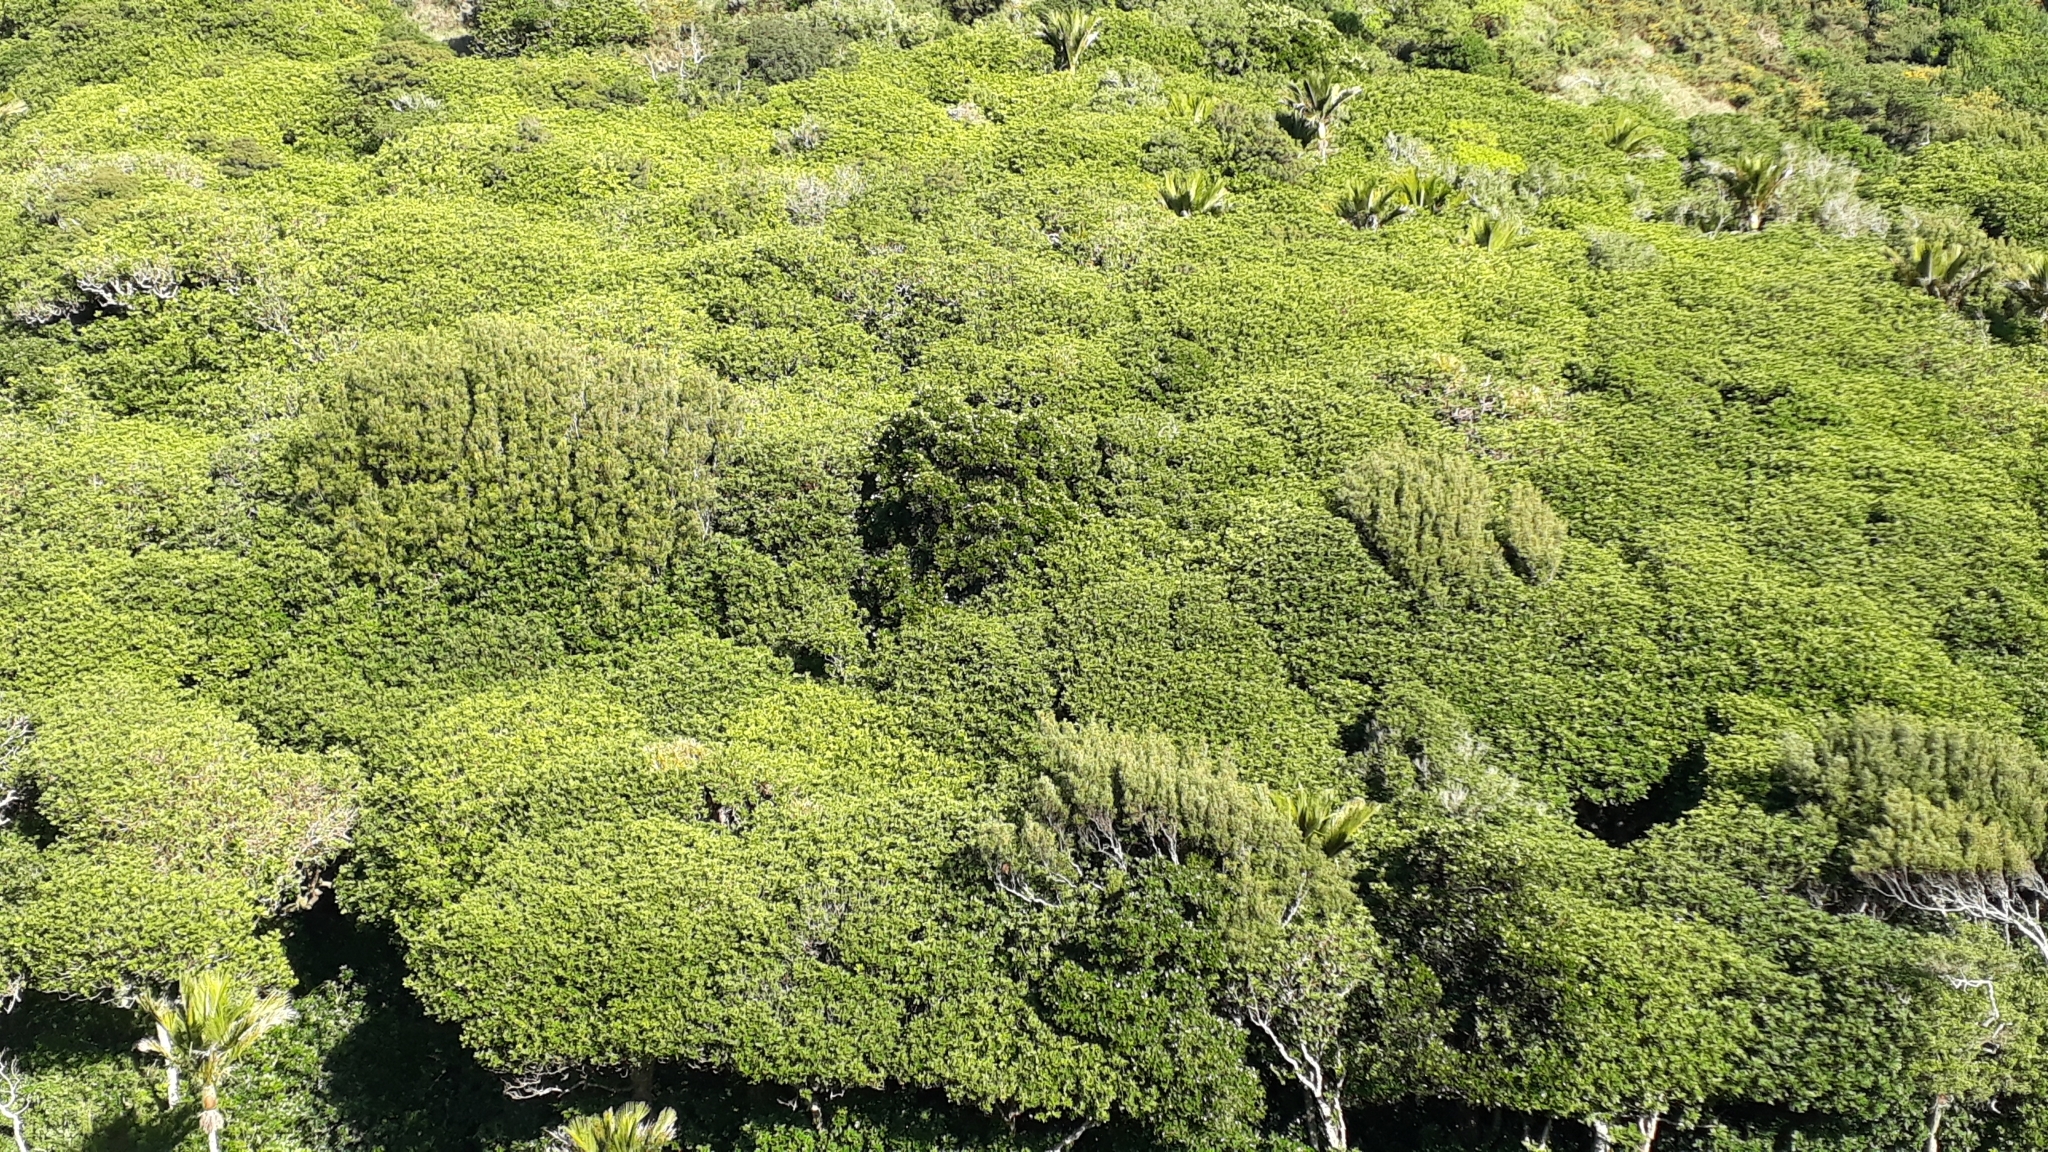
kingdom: Plantae
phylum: Tracheophyta
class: Magnoliopsida
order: Sapindales
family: Meliaceae
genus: Didymocheton
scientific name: Didymocheton spectabilis
